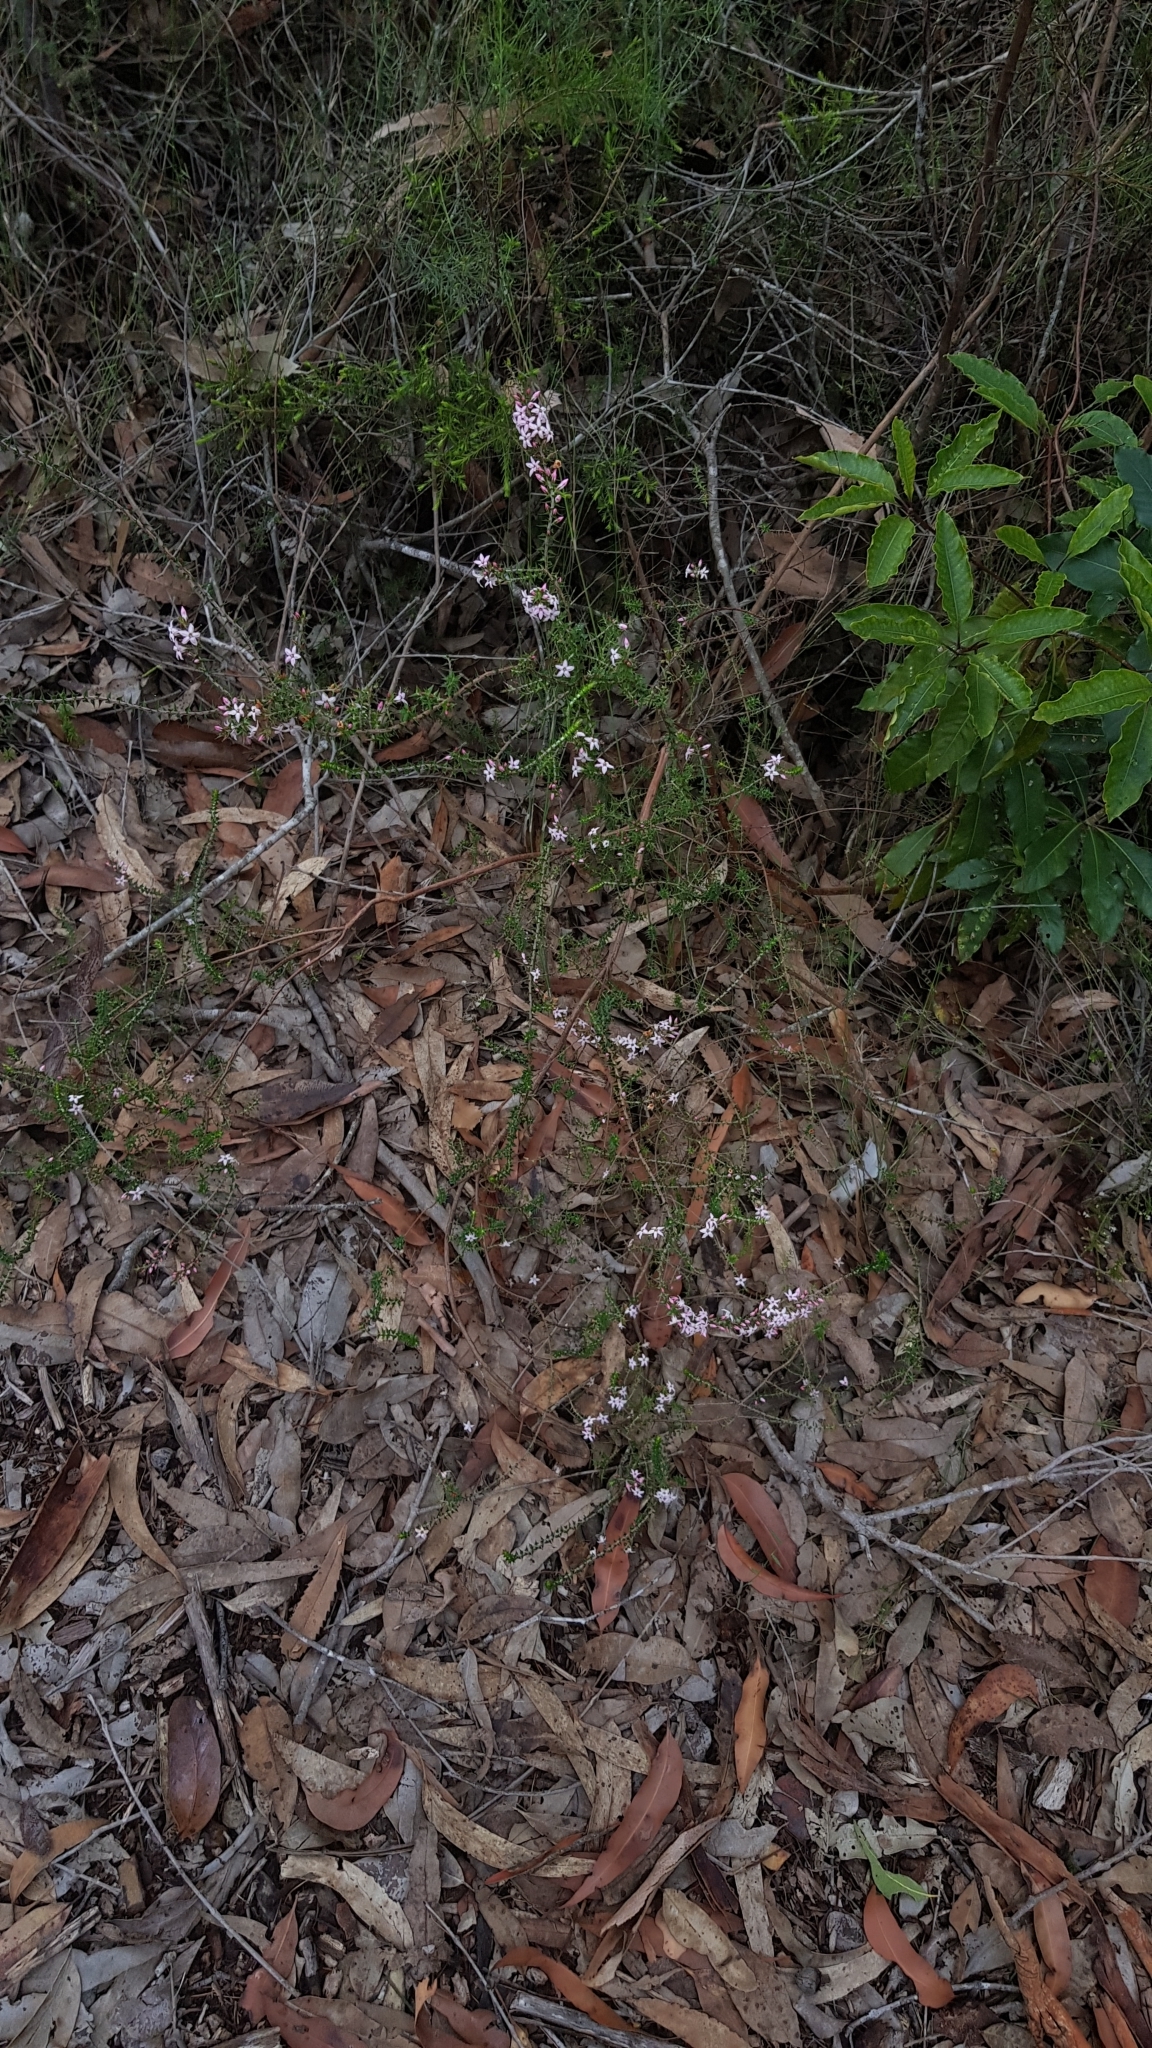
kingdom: Plantae
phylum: Tracheophyta
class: Magnoliopsida
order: Ericales
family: Ericaceae
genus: Epacris
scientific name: Epacris pulchella
